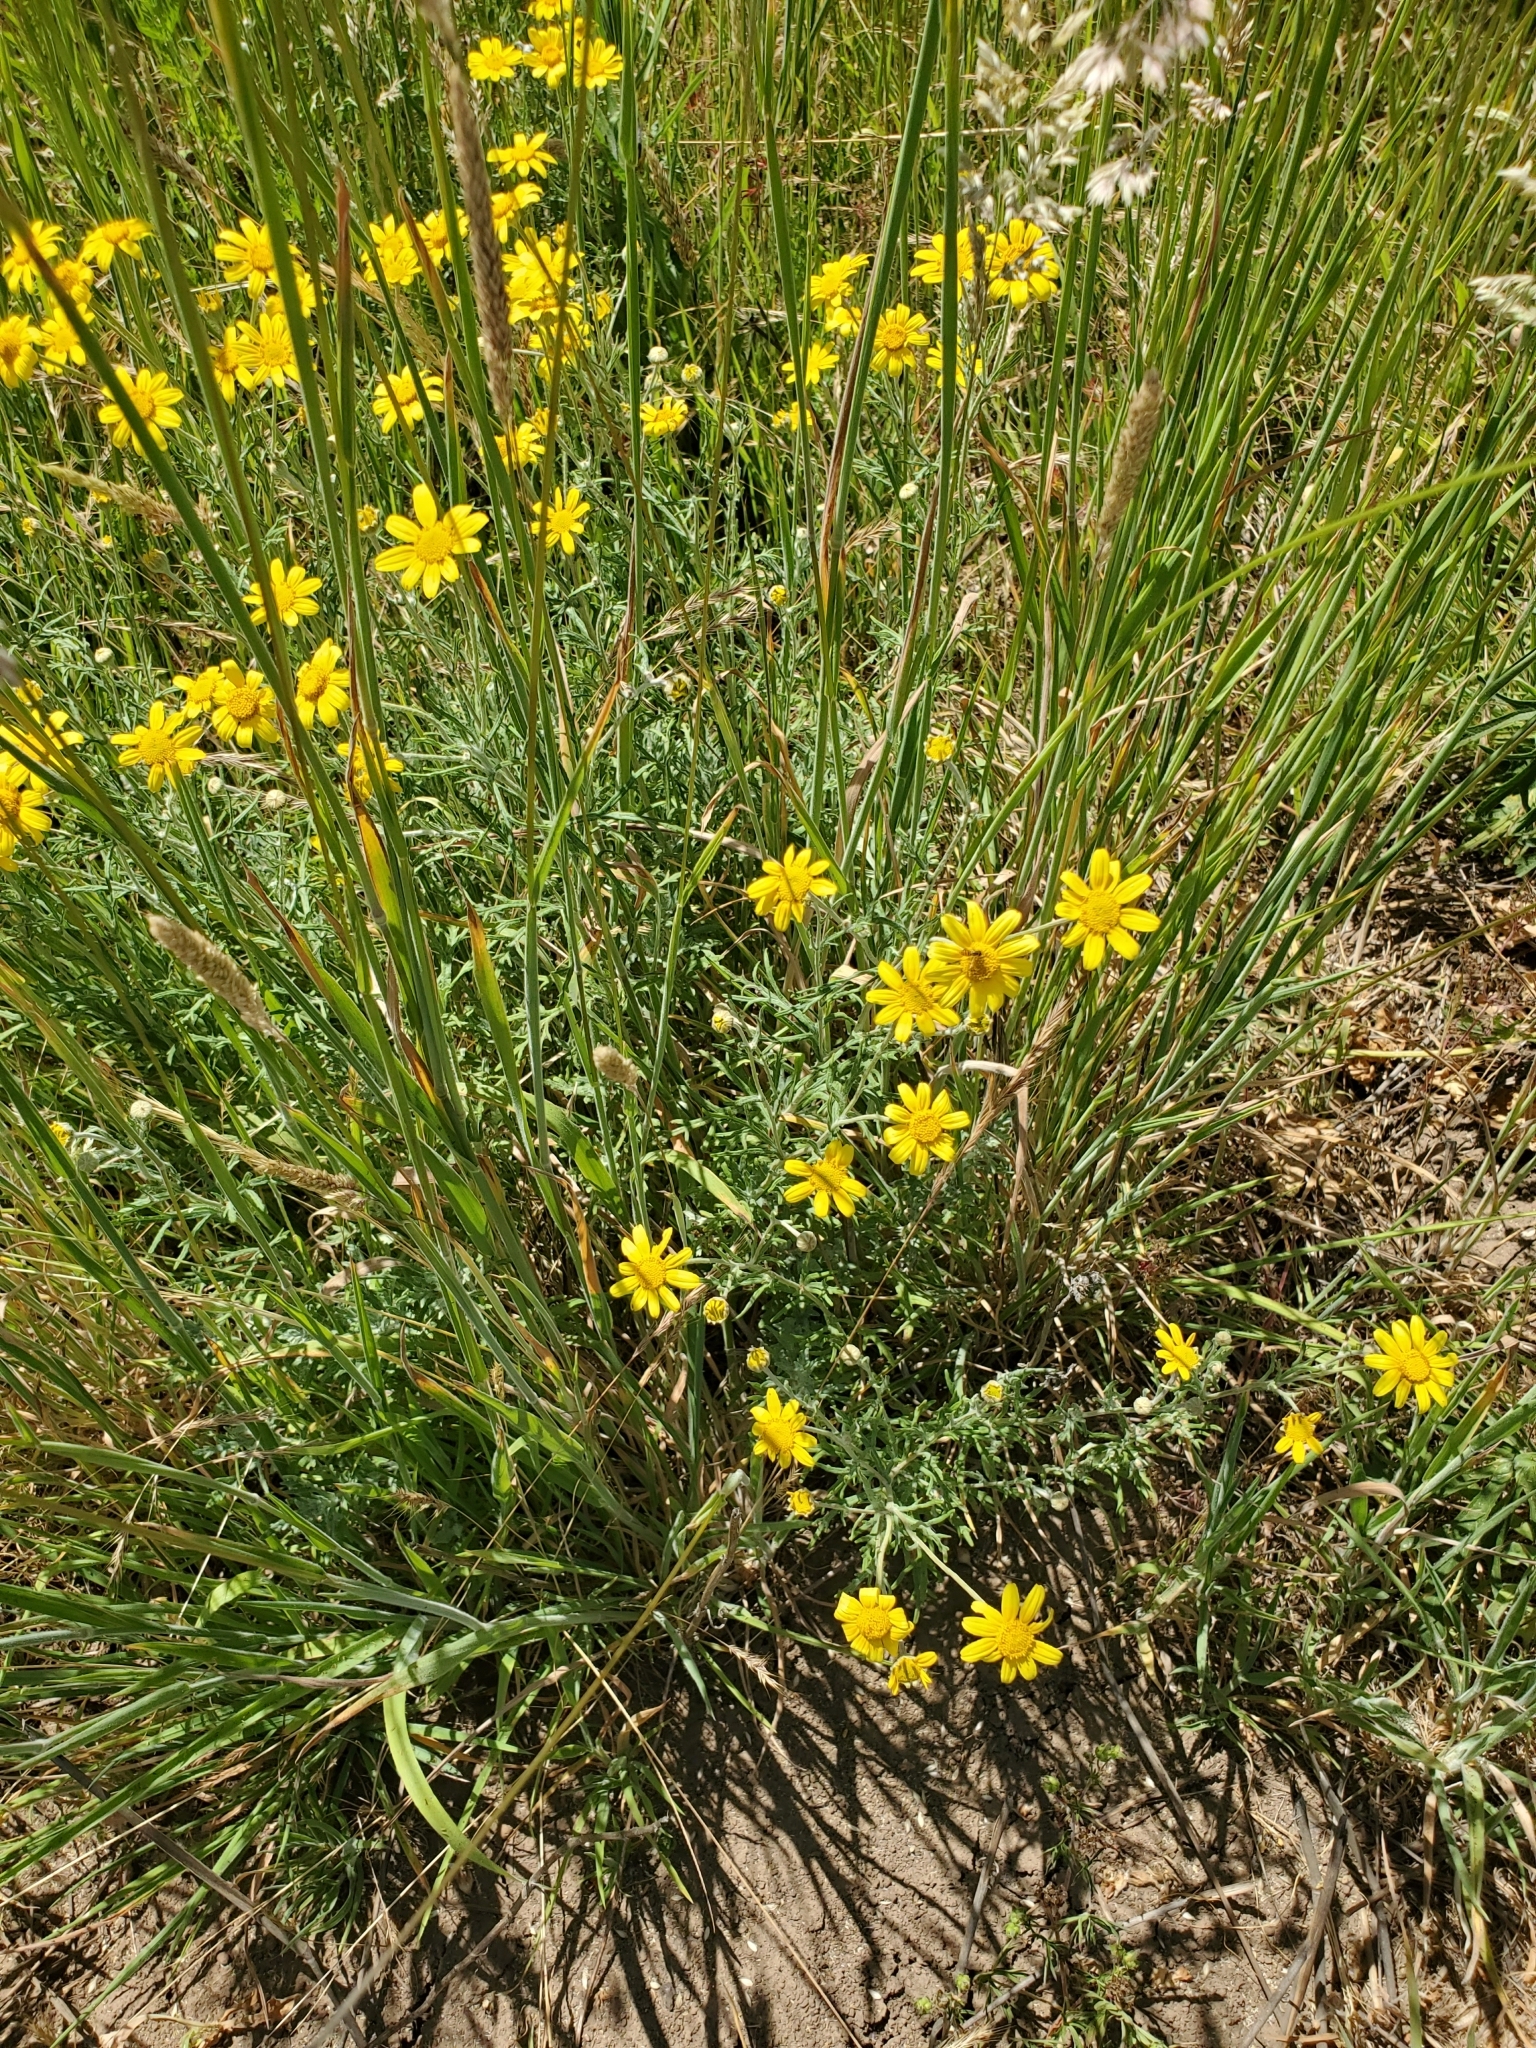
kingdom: Plantae
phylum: Tracheophyta
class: Magnoliopsida
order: Asterales
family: Asteraceae
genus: Eriophyllum
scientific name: Eriophyllum lanatum
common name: Common woolly-sunflower
